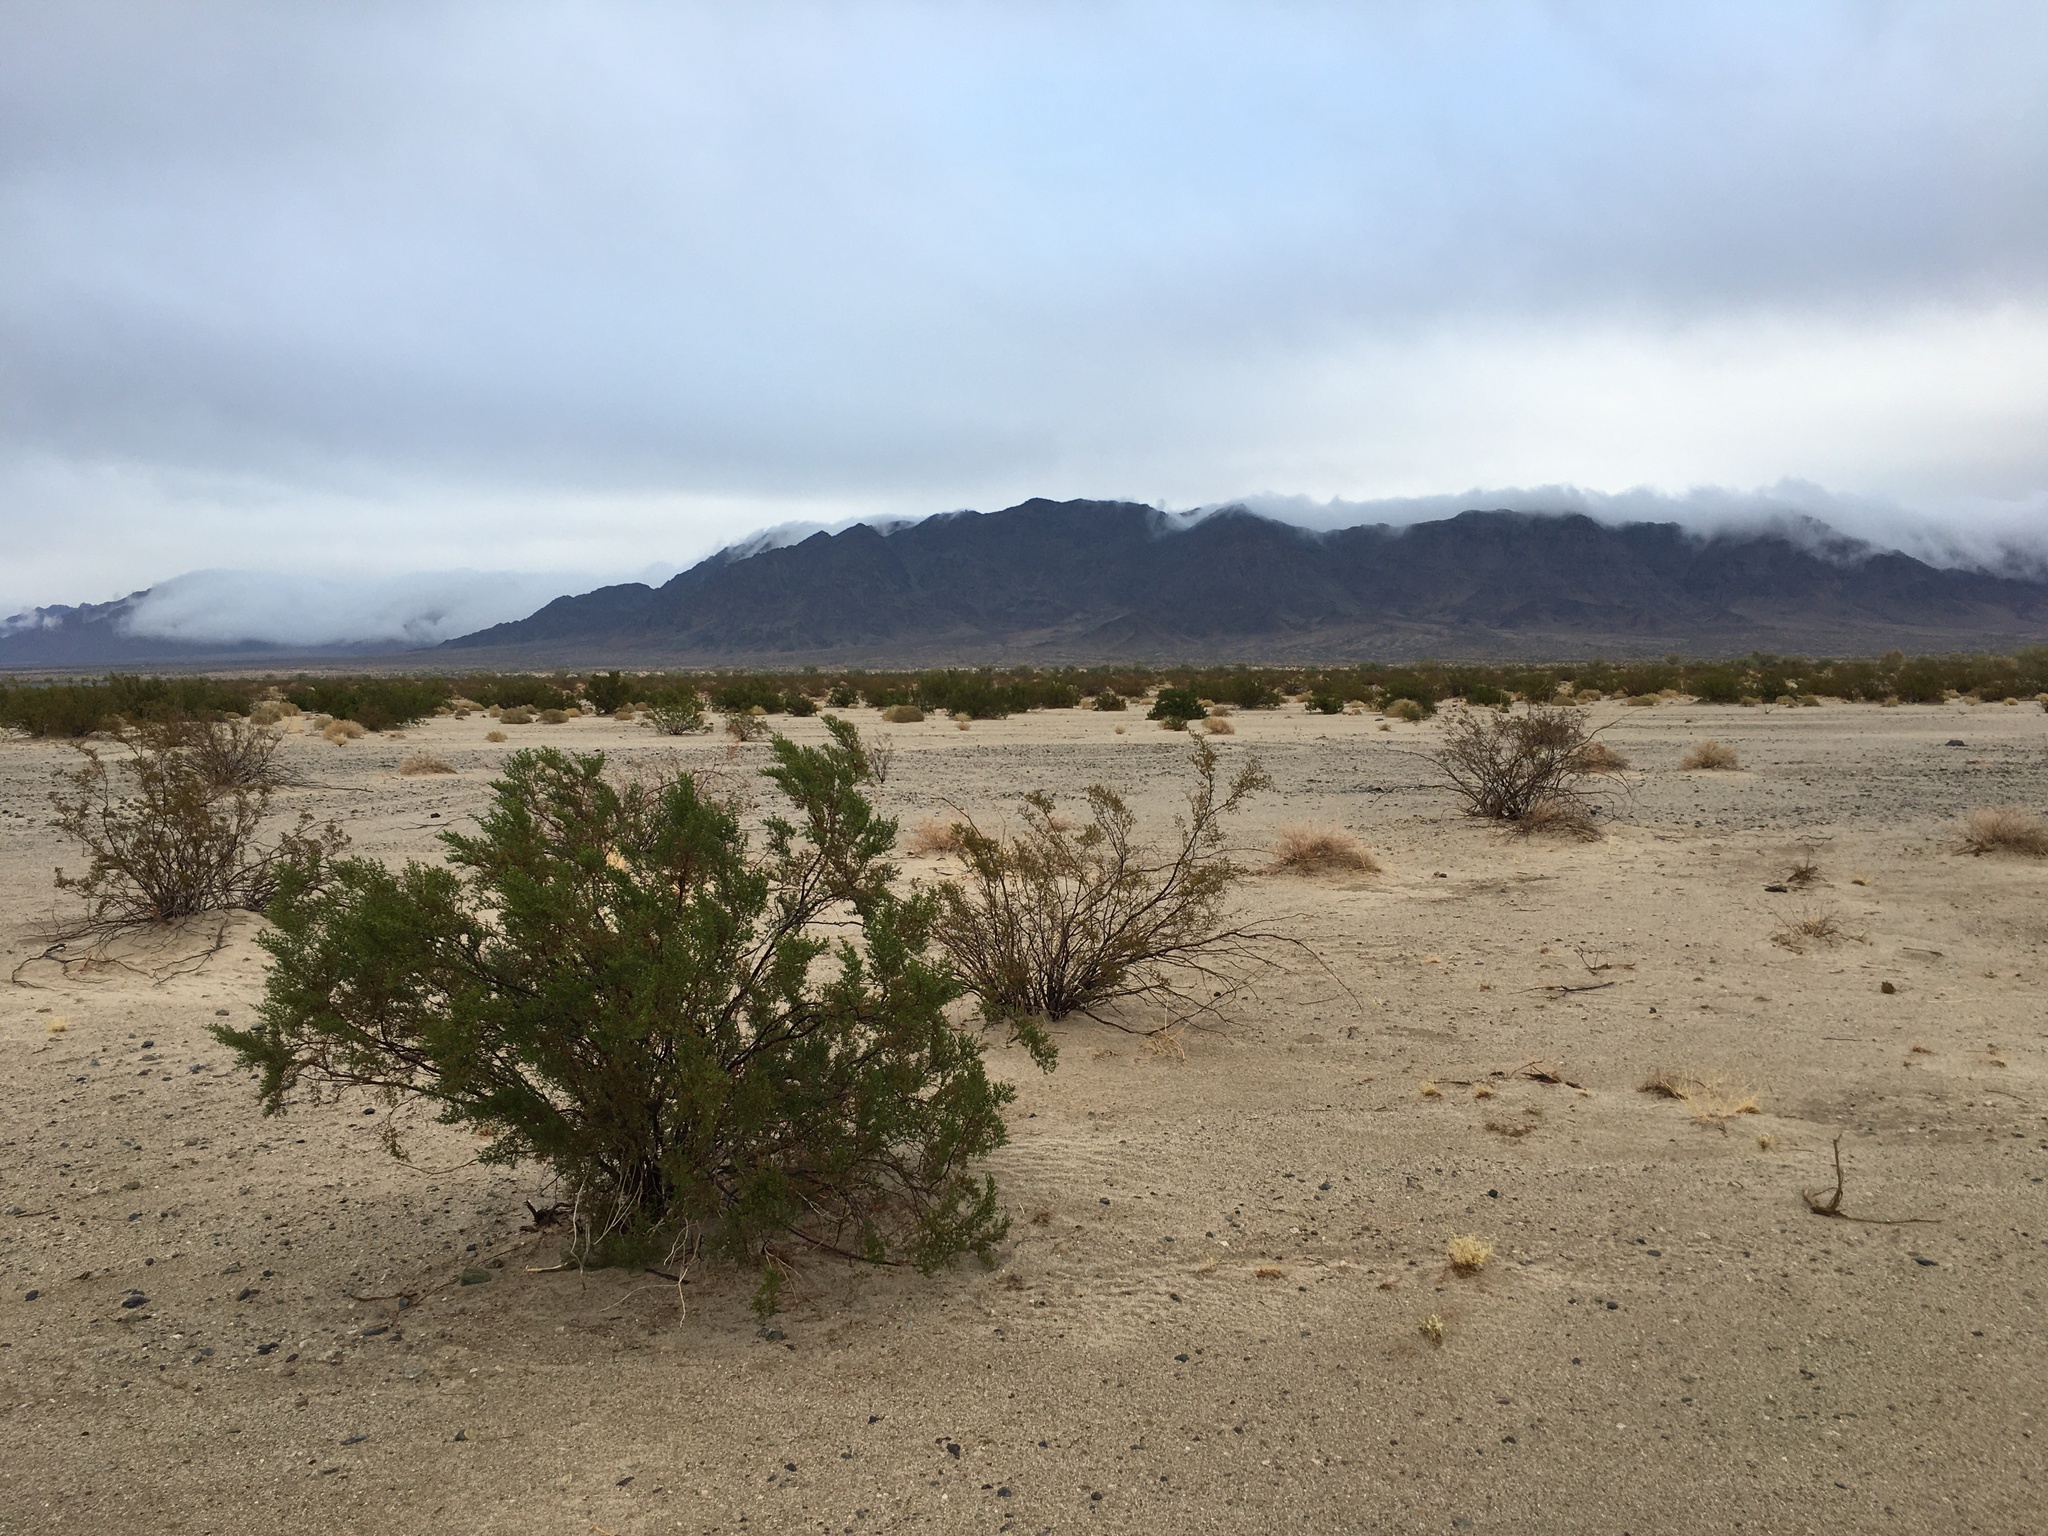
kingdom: Plantae
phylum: Tracheophyta
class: Magnoliopsida
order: Zygophyllales
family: Zygophyllaceae
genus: Larrea
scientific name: Larrea tridentata
